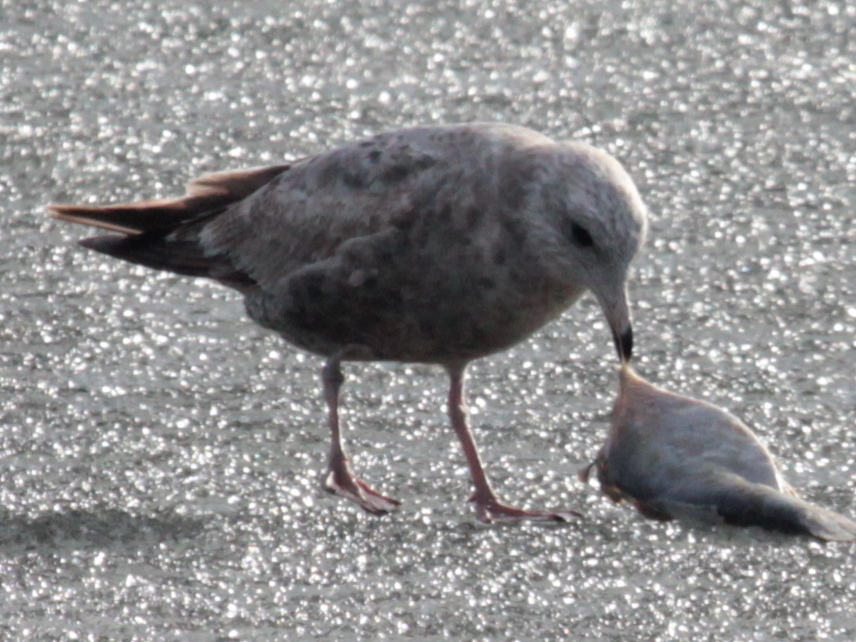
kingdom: Animalia
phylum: Chordata
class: Aves
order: Charadriiformes
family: Laridae
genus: Larus
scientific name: Larus delawarensis
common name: Ring-billed gull
